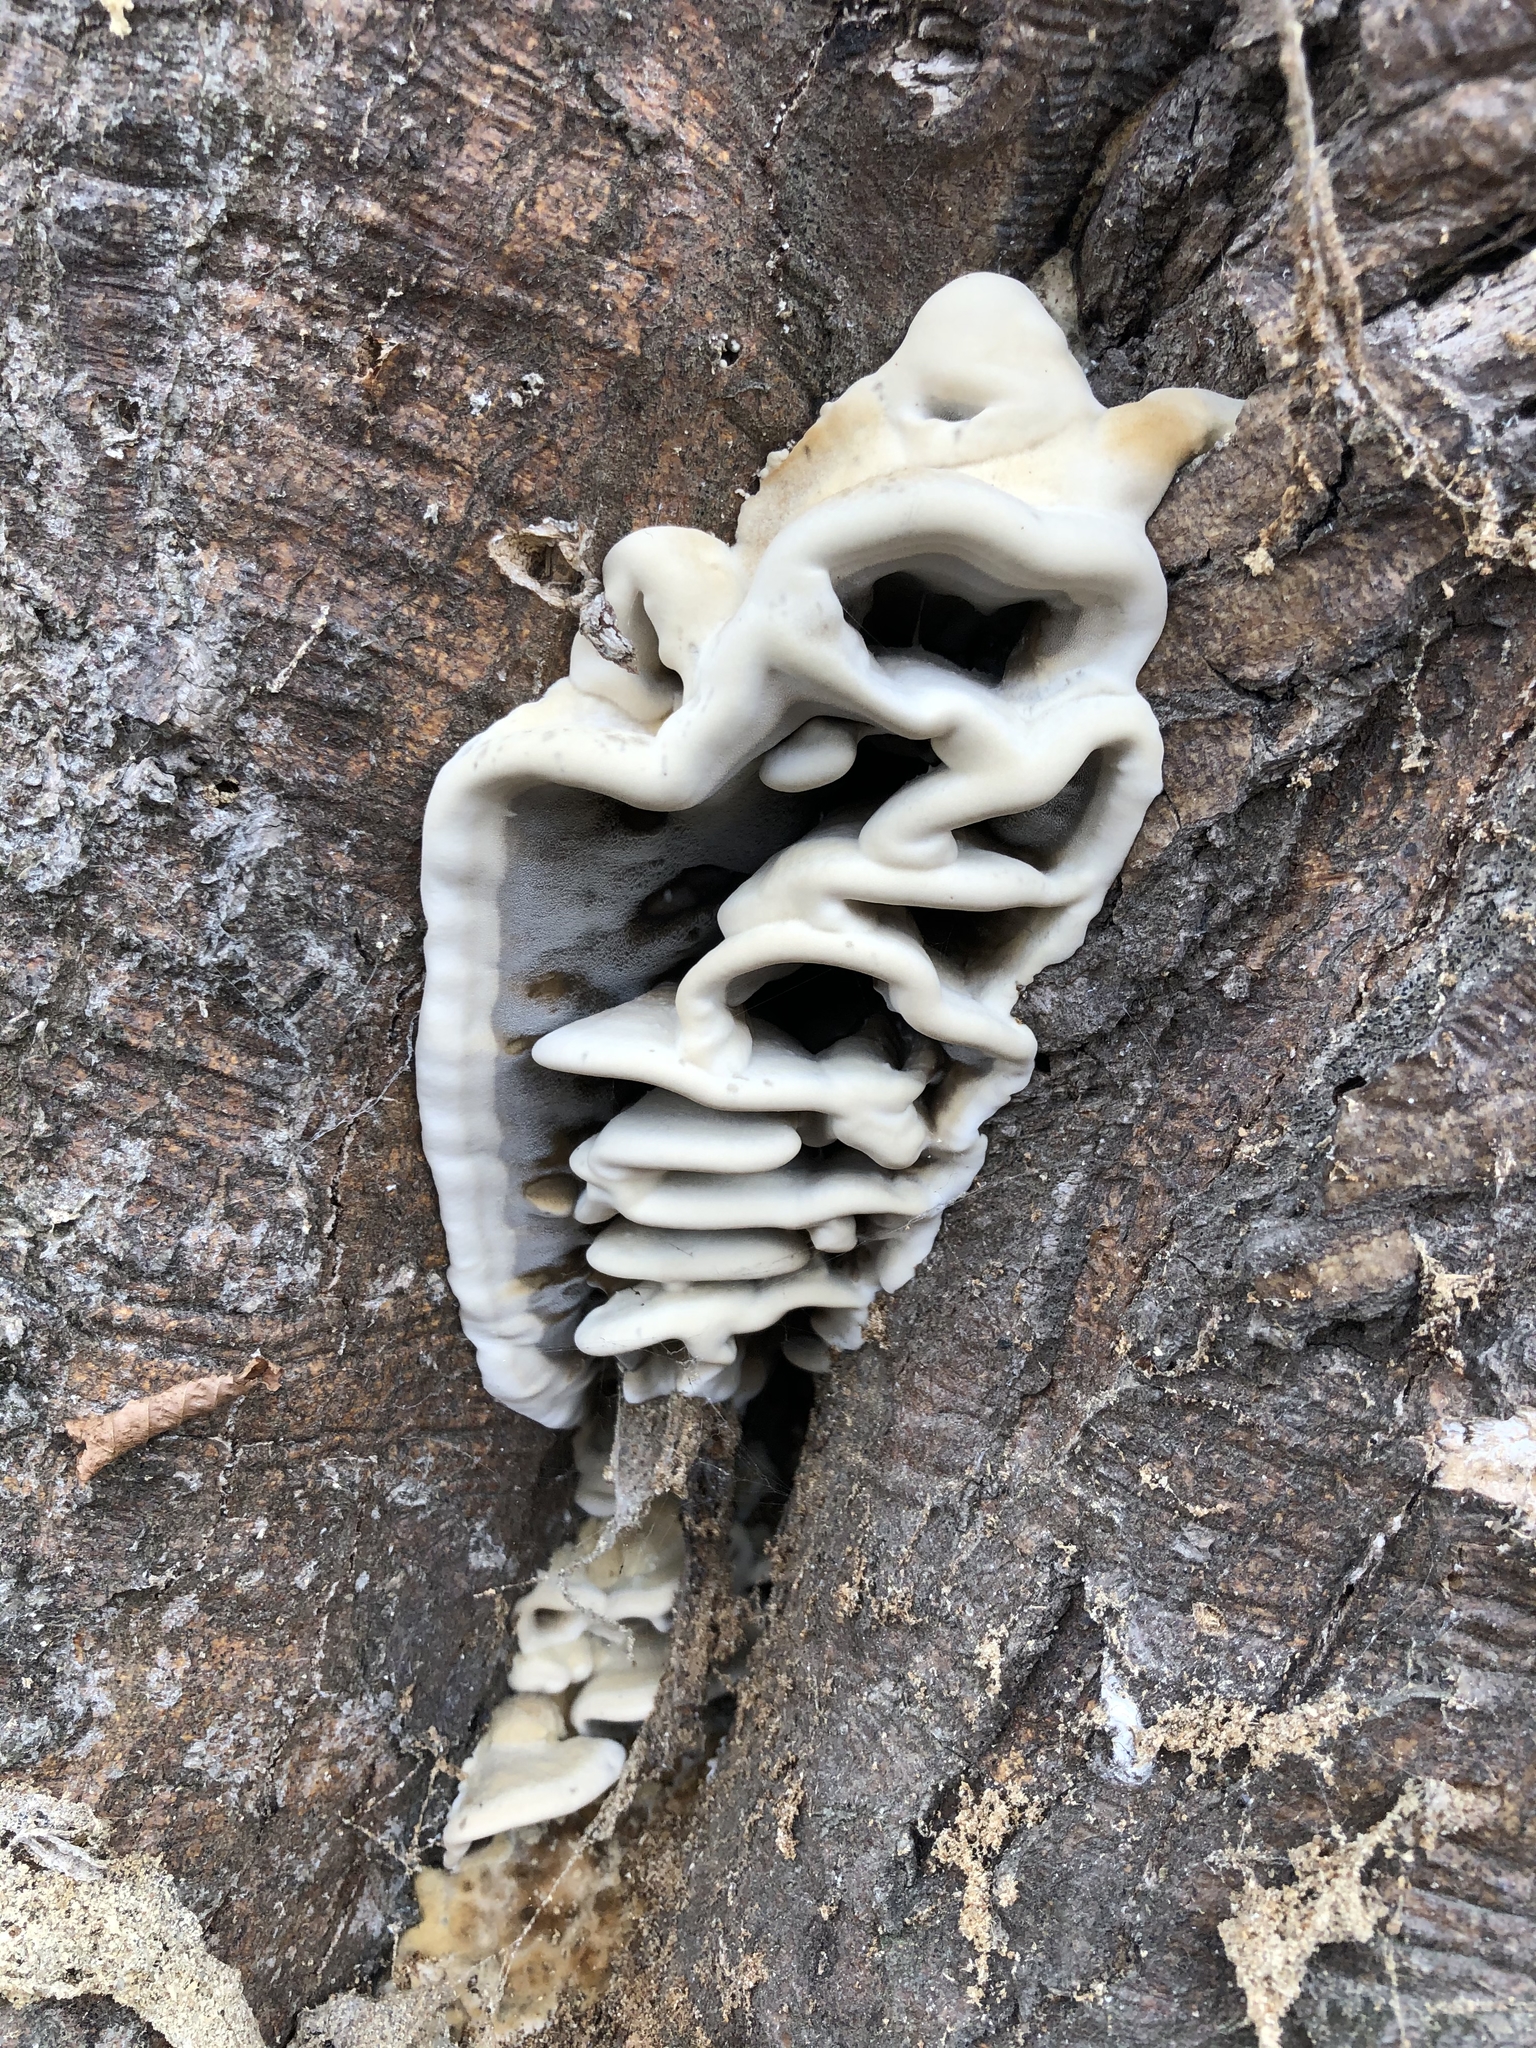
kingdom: Fungi
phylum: Basidiomycota
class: Agaricomycetes
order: Polyporales
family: Phanerochaetaceae
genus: Bjerkandera
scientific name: Bjerkandera adusta
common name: Smoky bracket
